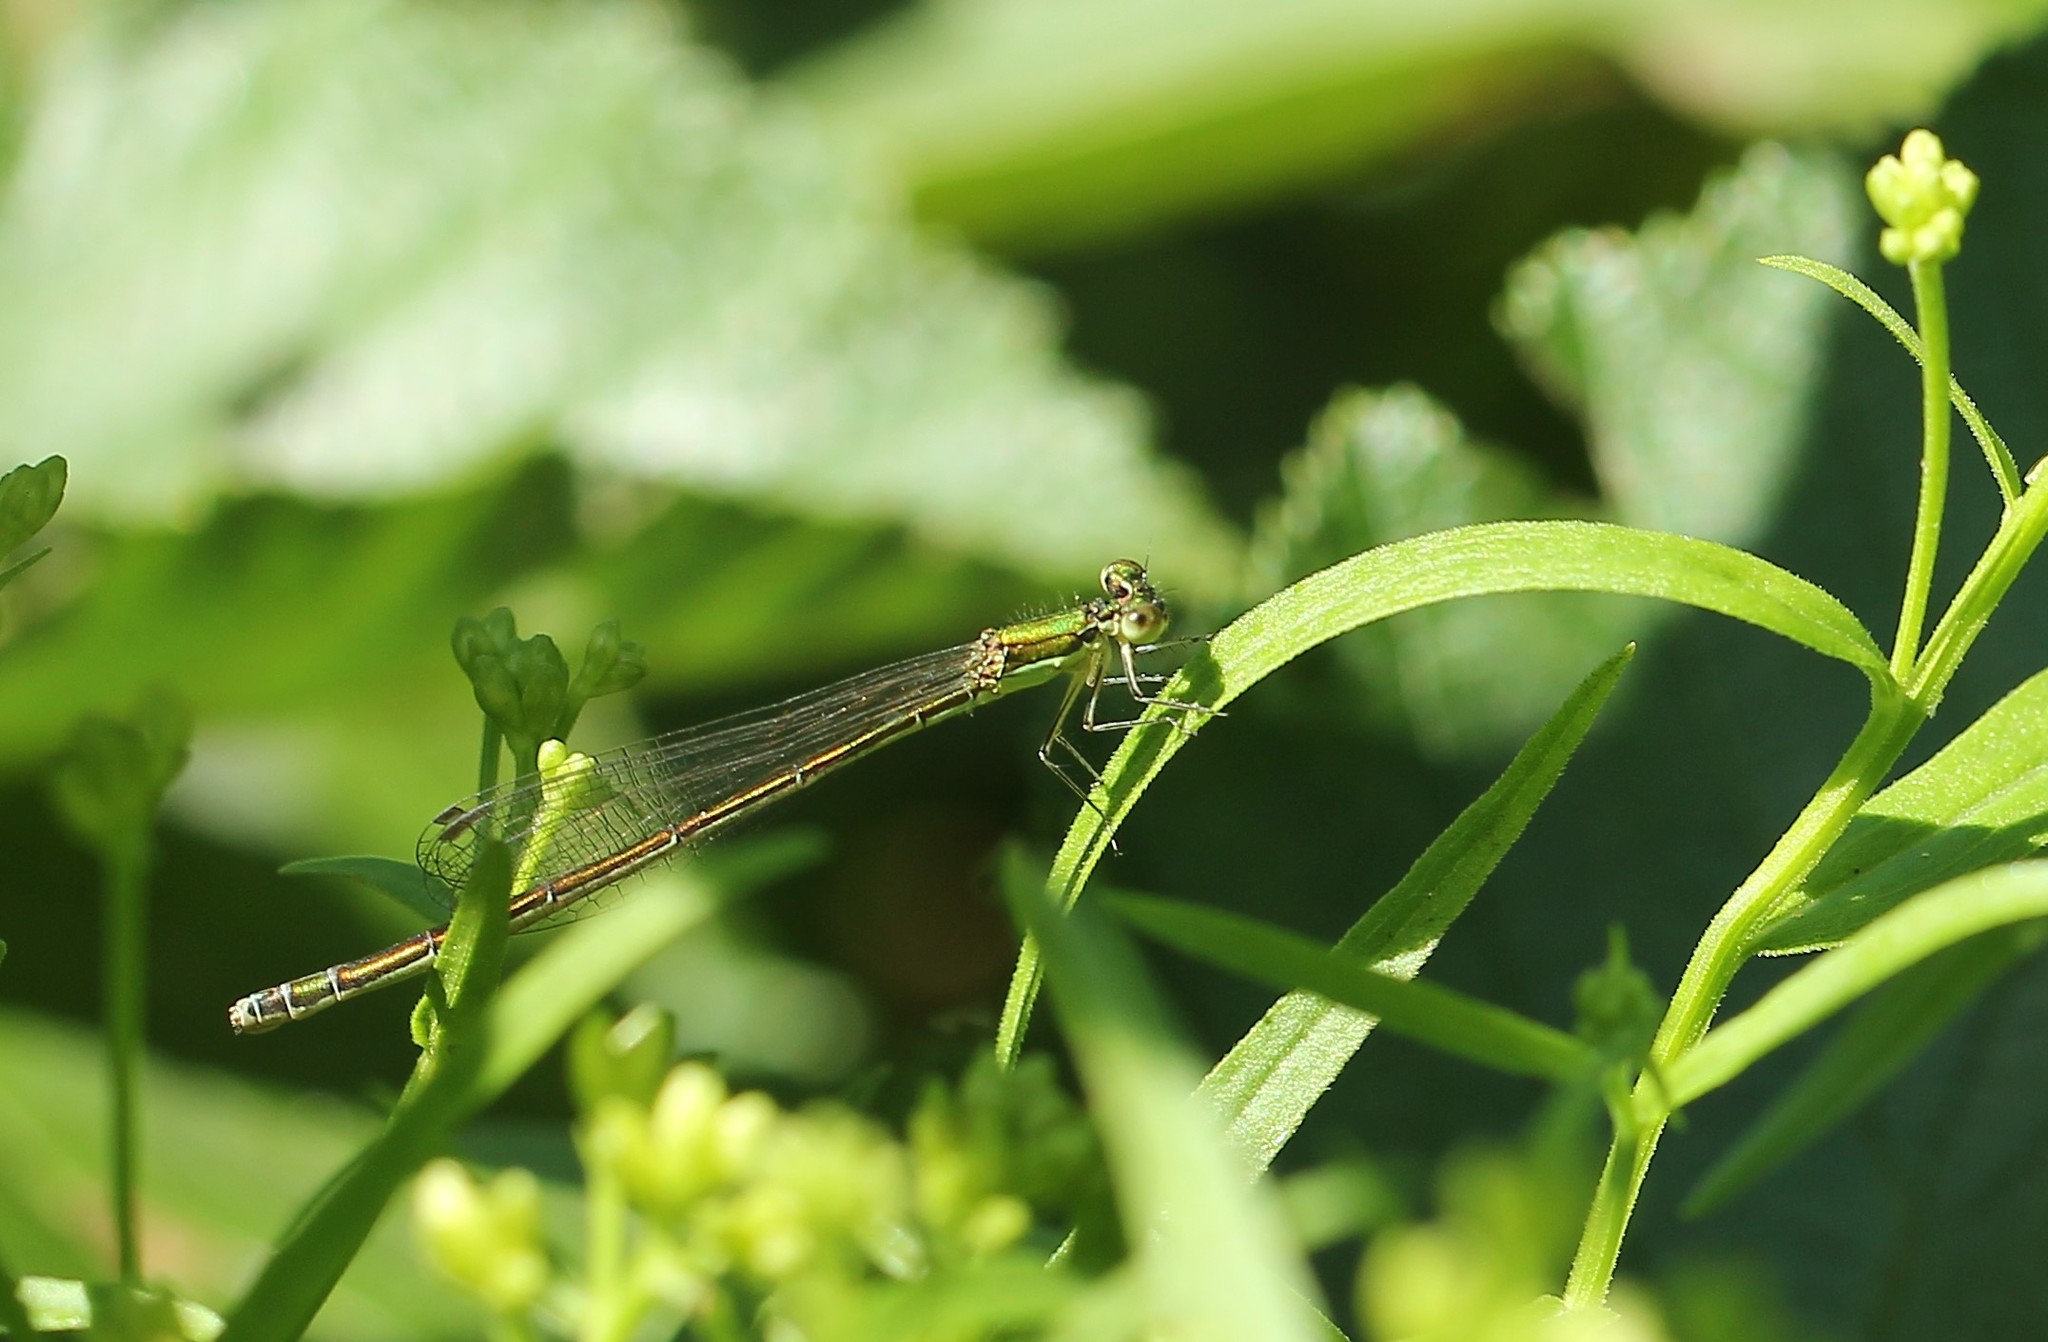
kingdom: Animalia
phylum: Arthropoda
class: Insecta
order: Odonata
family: Coenagrionidae
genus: Nehalennia
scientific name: Nehalennia irene
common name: Sedge sprite
